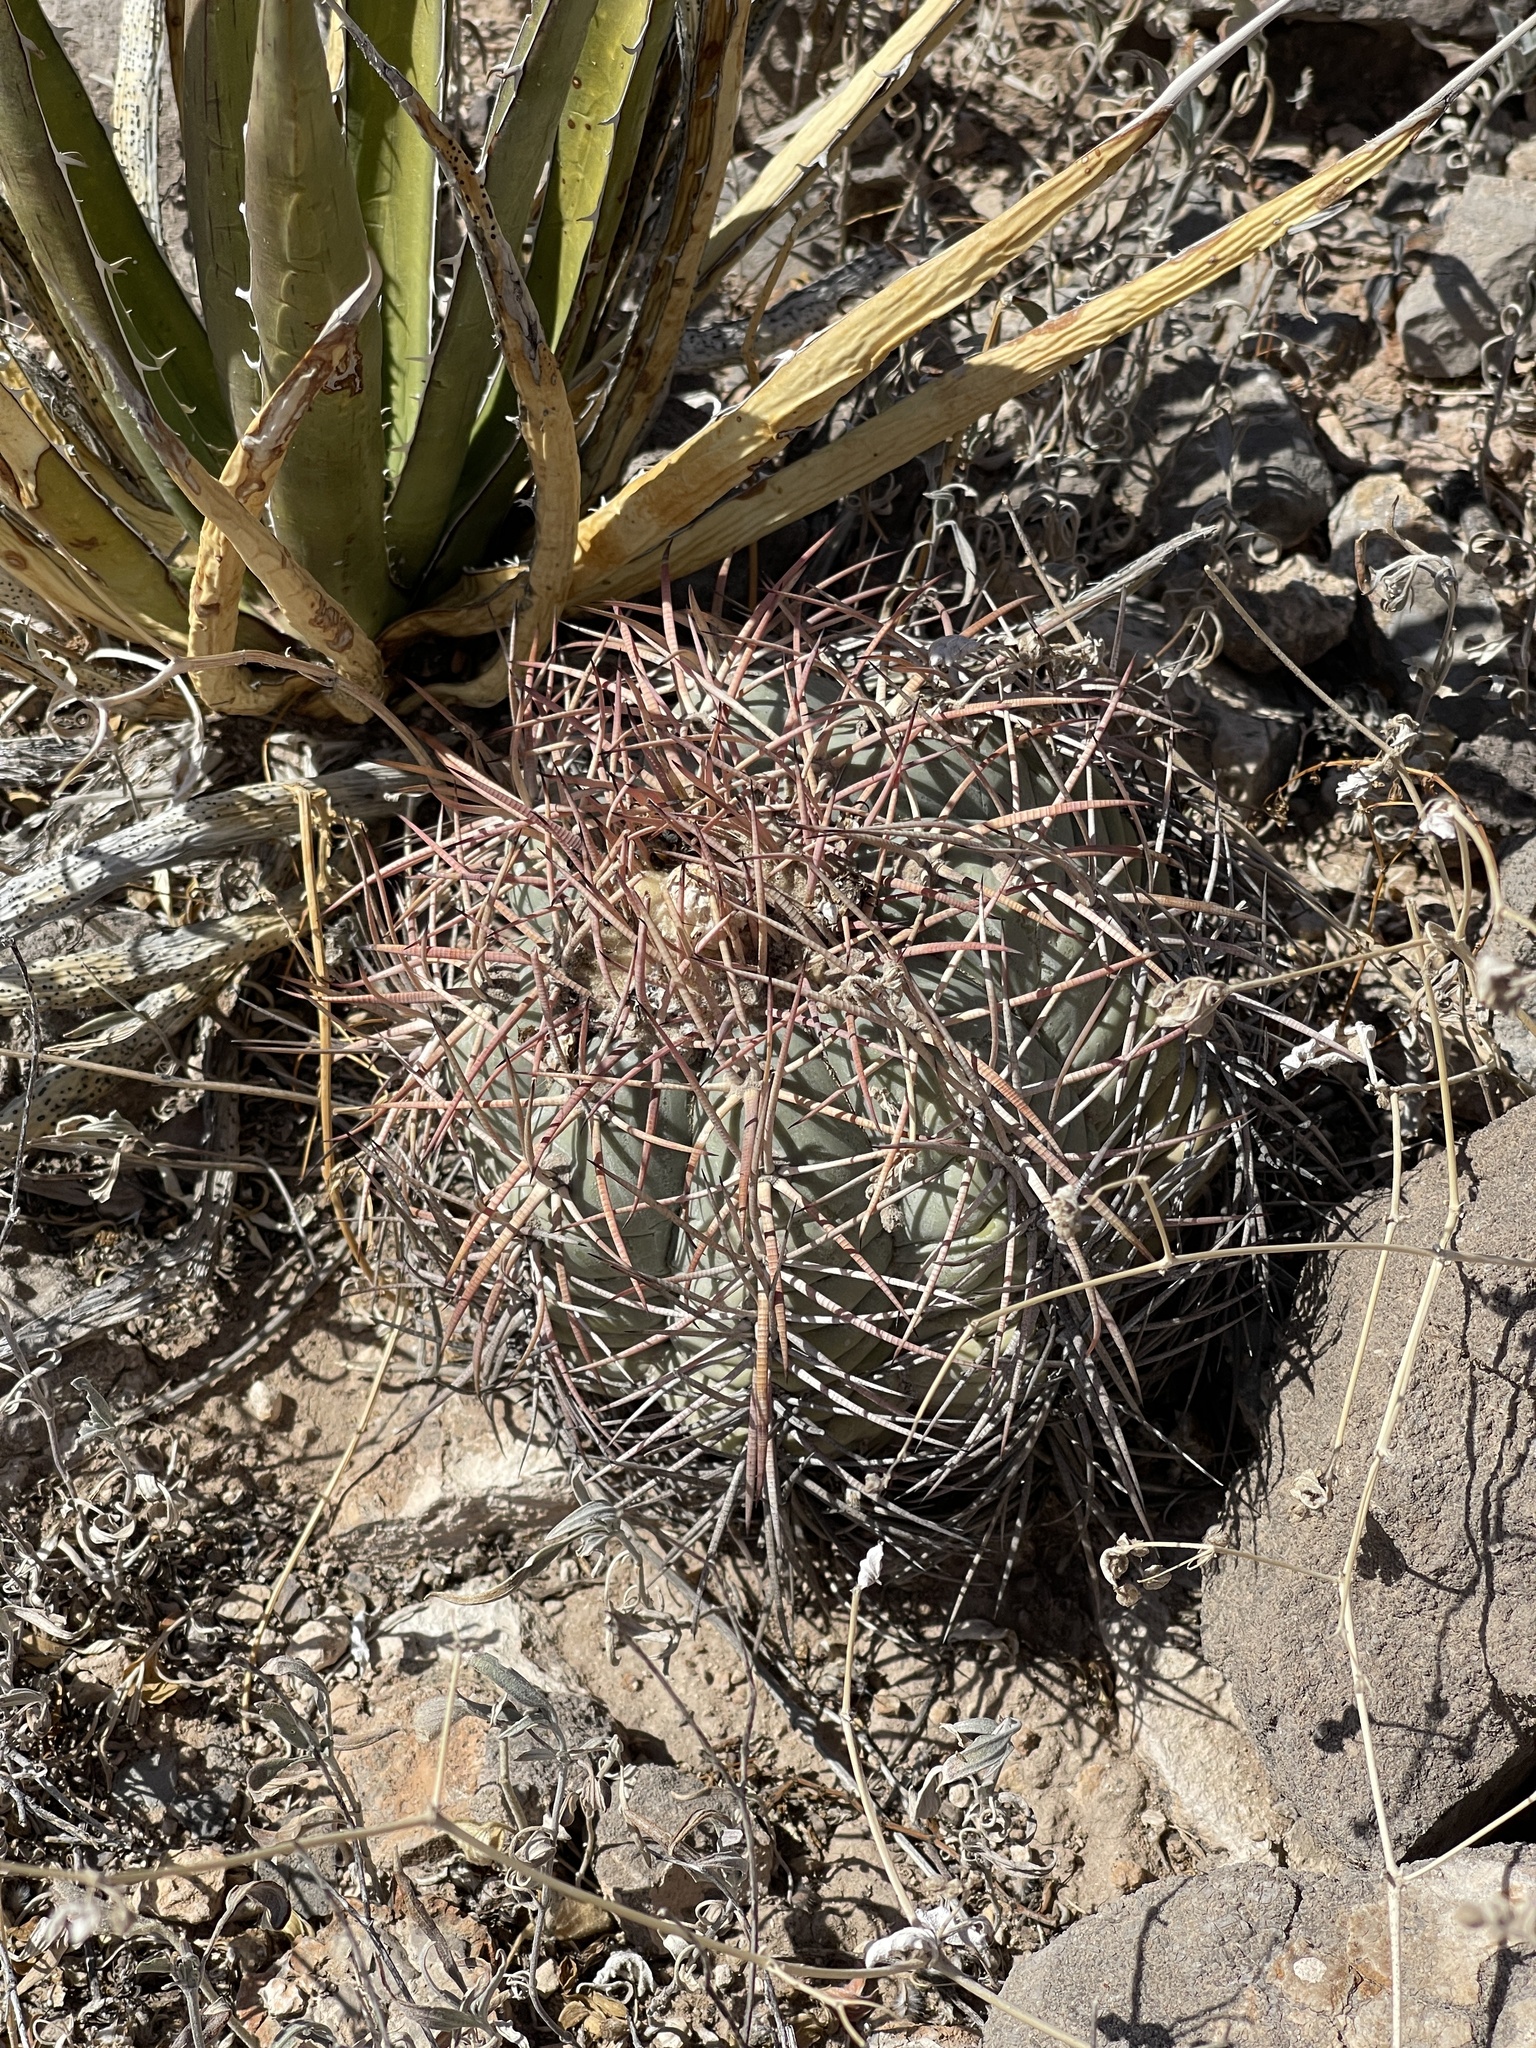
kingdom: Plantae
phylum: Tracheophyta
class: Magnoliopsida
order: Caryophyllales
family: Cactaceae
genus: Echinocactus
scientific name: Echinocactus horizonthalonius
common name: Devilshead
